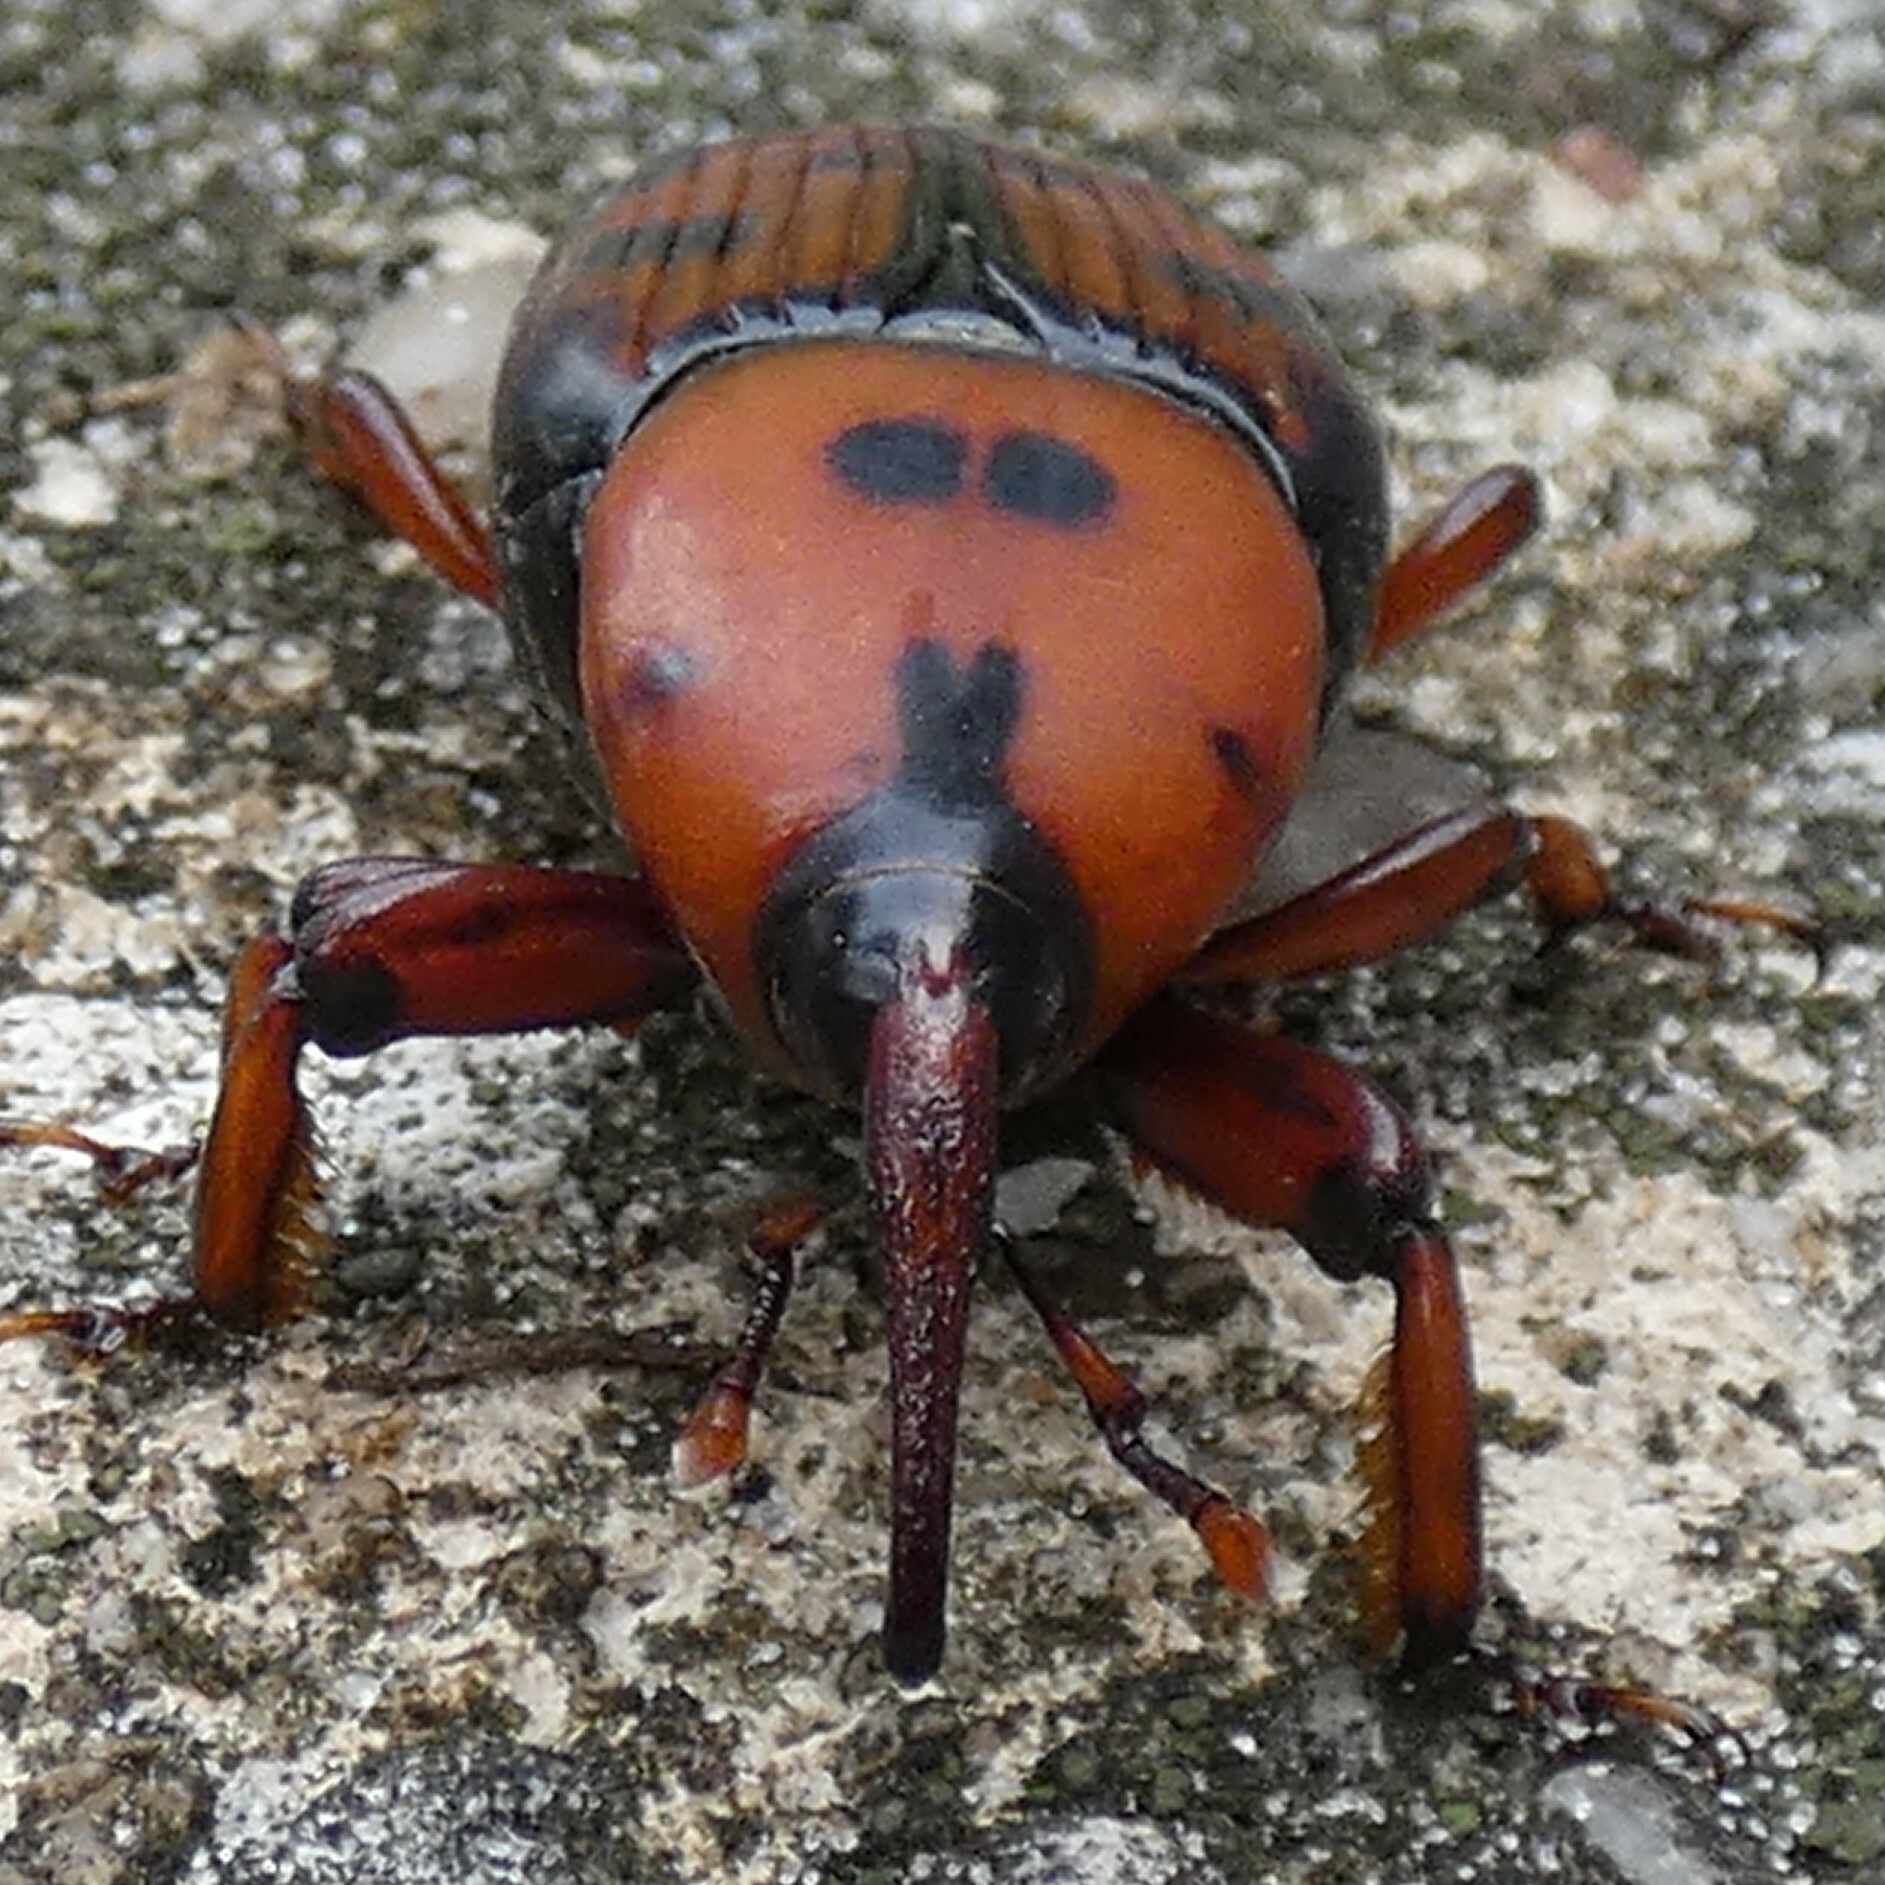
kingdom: Animalia
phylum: Arthropoda
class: Insecta
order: Coleoptera
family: Dryophthoridae
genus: Rhynchophorus
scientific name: Rhynchophorus cruentatus
